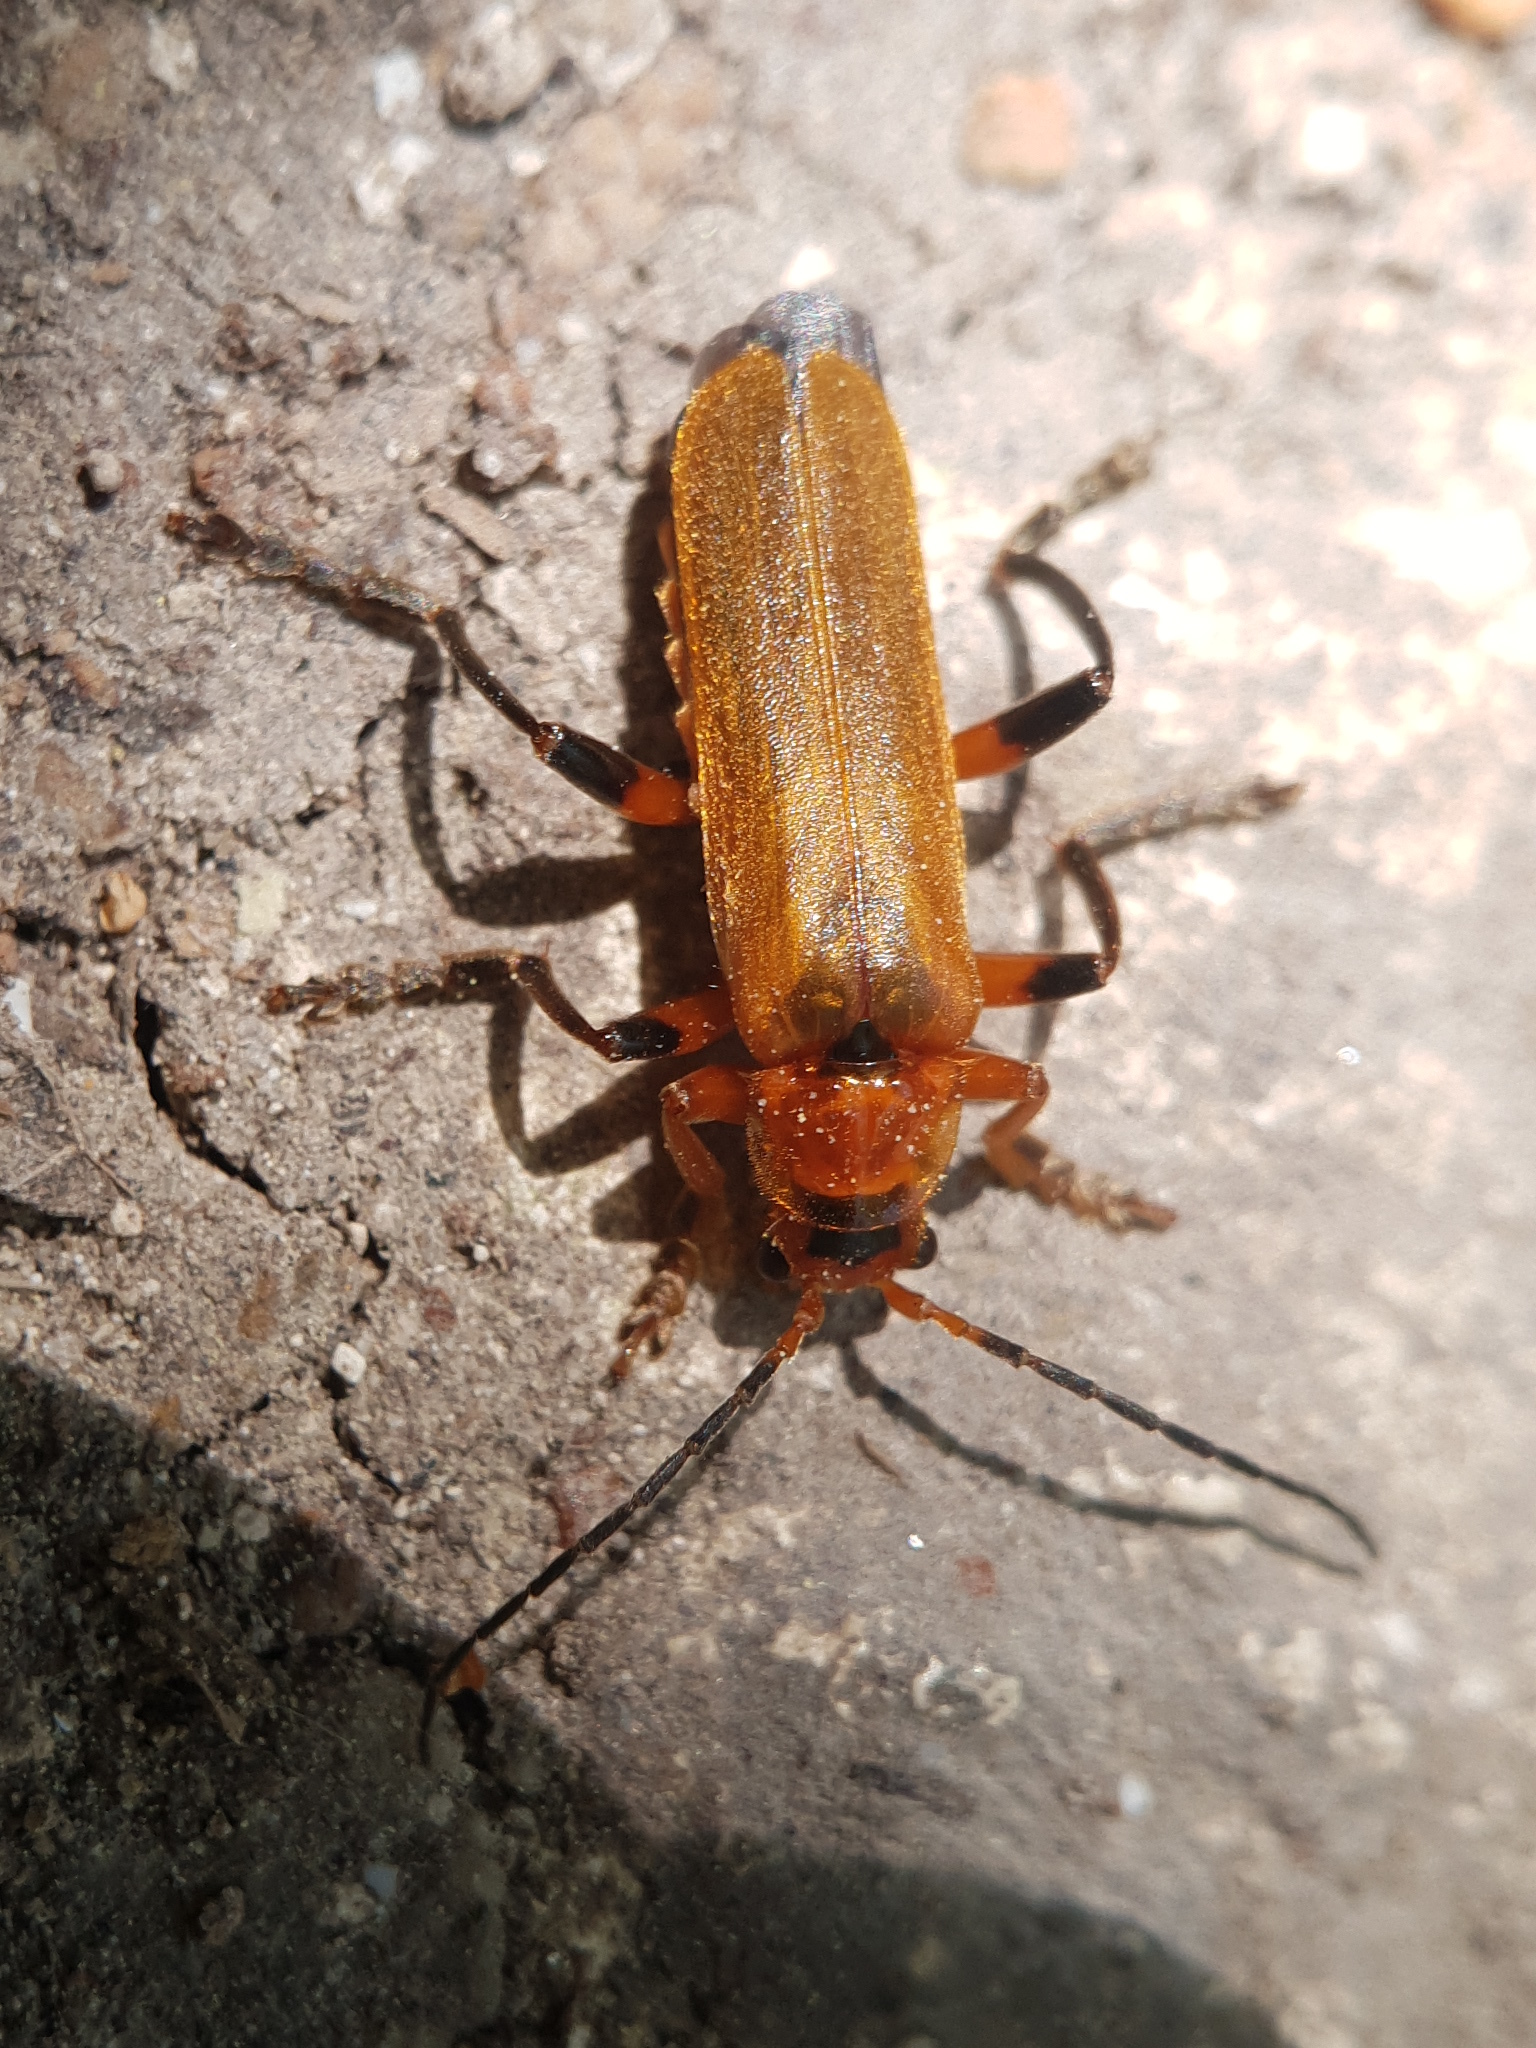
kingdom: Animalia
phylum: Arthropoda
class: Insecta
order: Coleoptera
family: Cantharidae
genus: Cantharis
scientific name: Cantharis melaspoides
